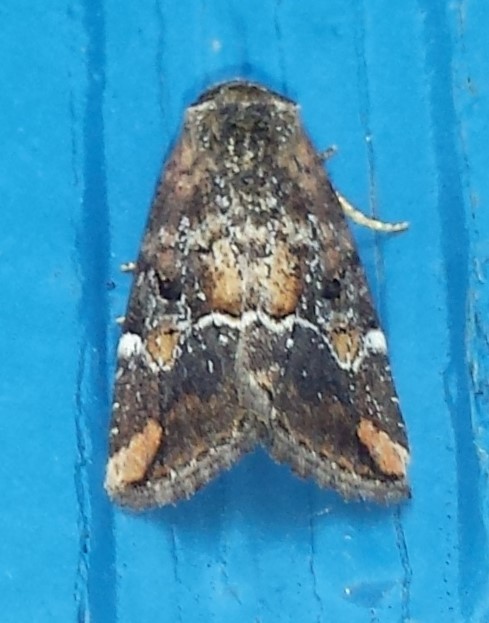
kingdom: Animalia
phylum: Arthropoda
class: Insecta
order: Lepidoptera
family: Noctuidae
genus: Elaphria
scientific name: Elaphria versicolor
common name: Fir harlequin
